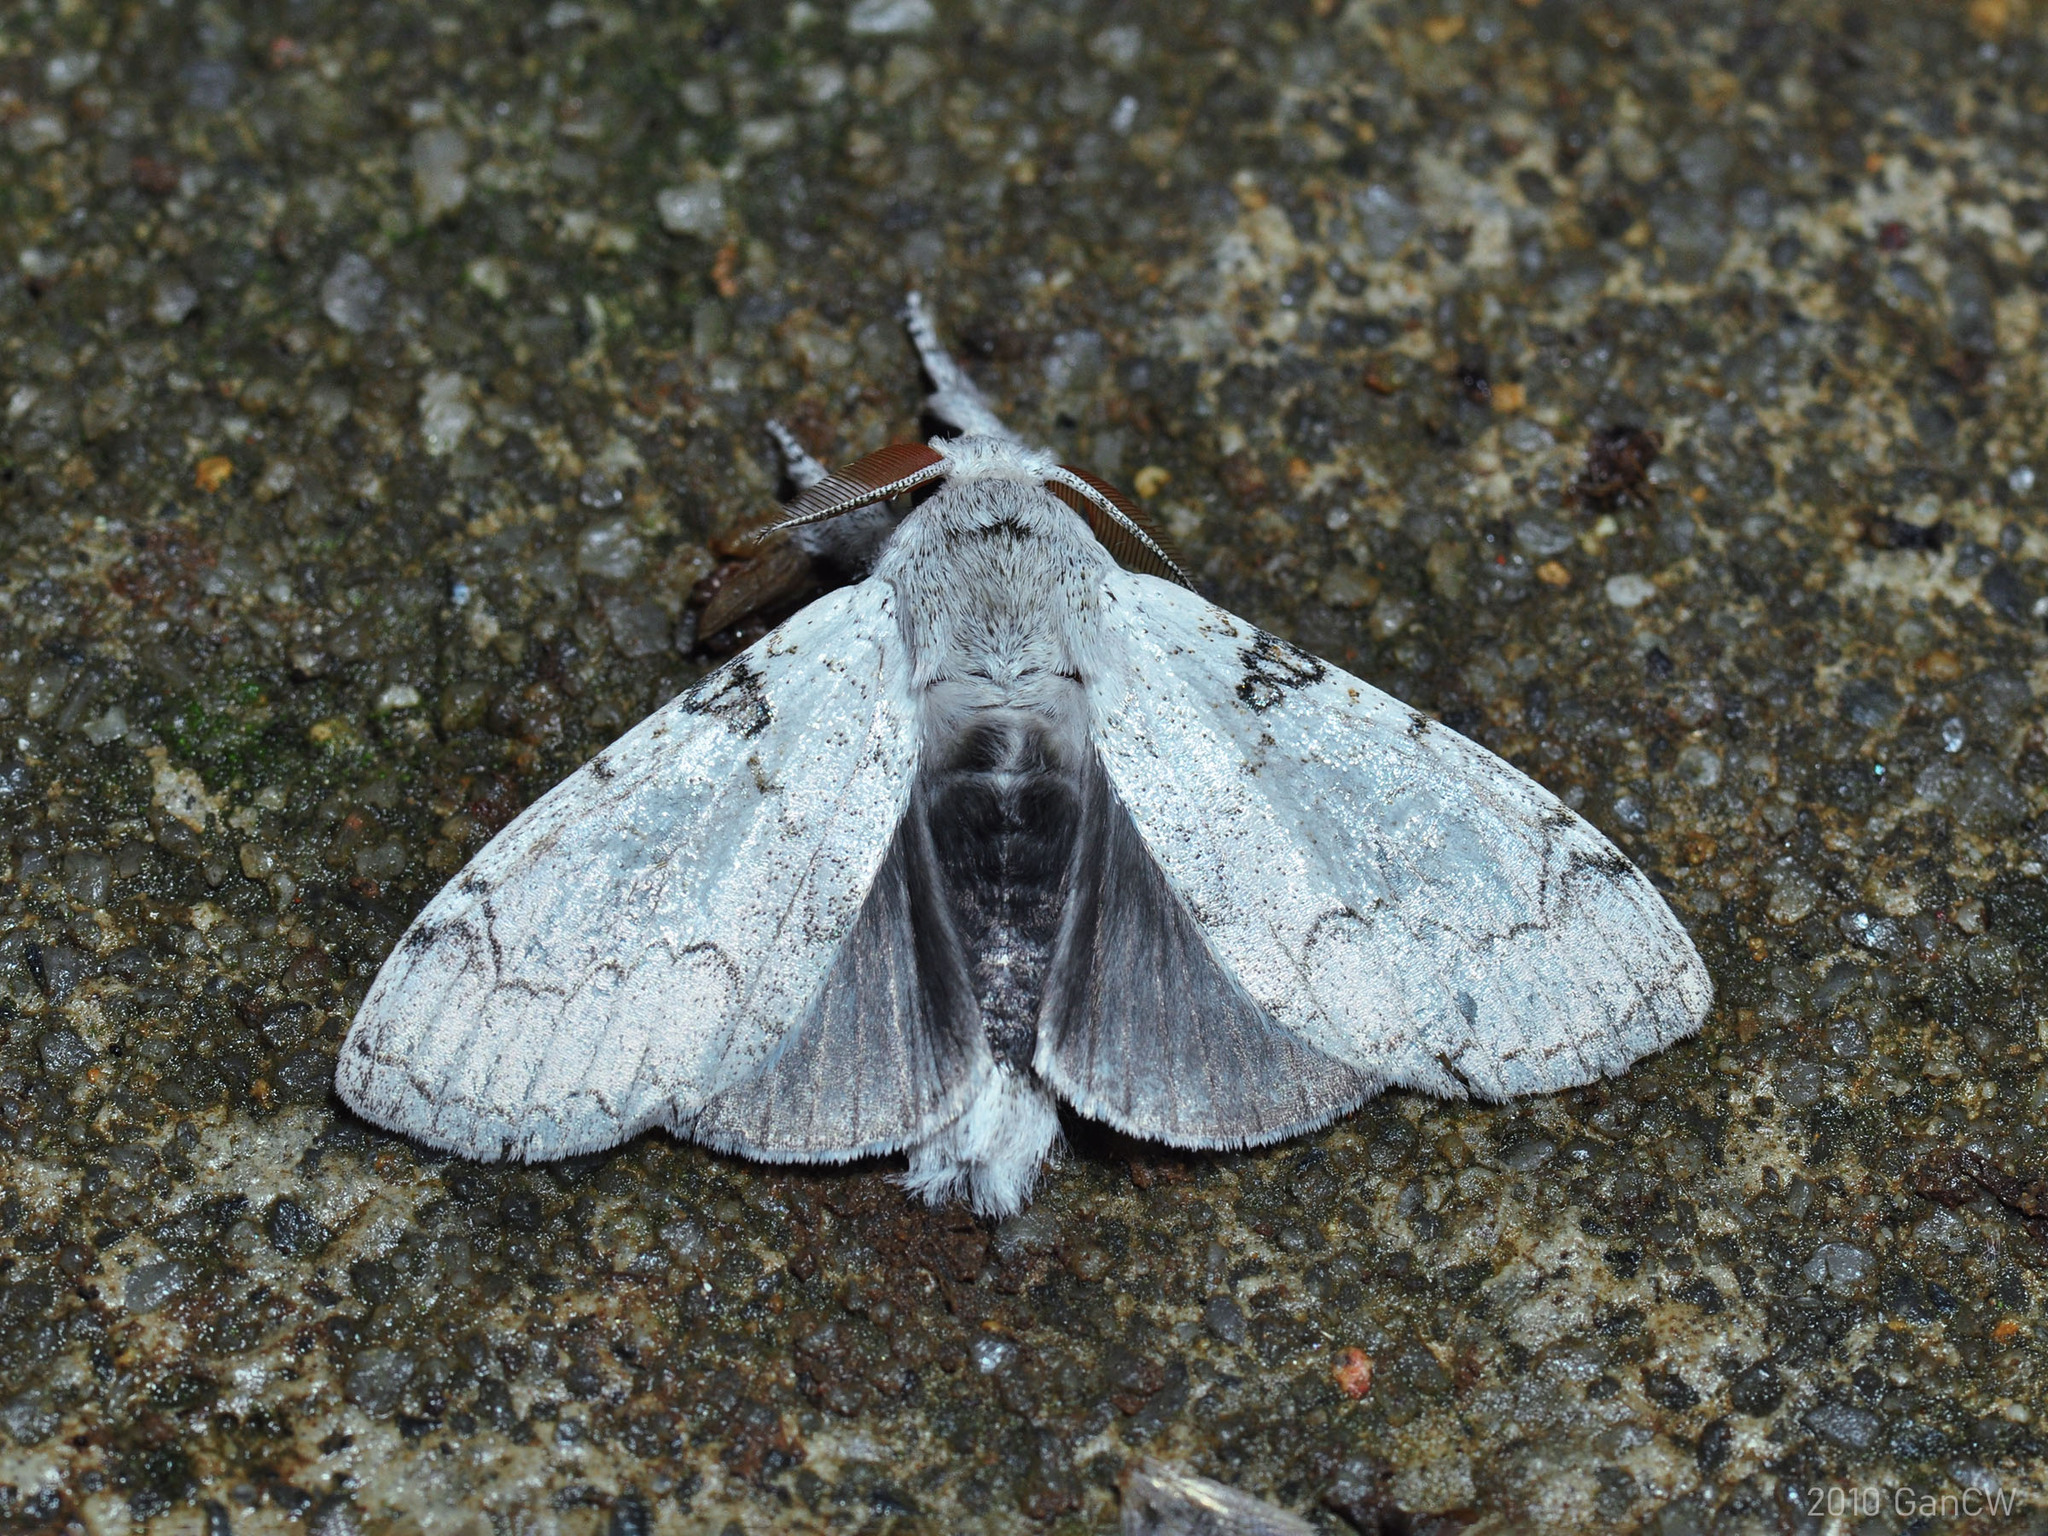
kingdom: Animalia
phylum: Arthropoda
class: Insecta
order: Lepidoptera
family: Erebidae
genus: Calliteara
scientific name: Calliteara diplozona
